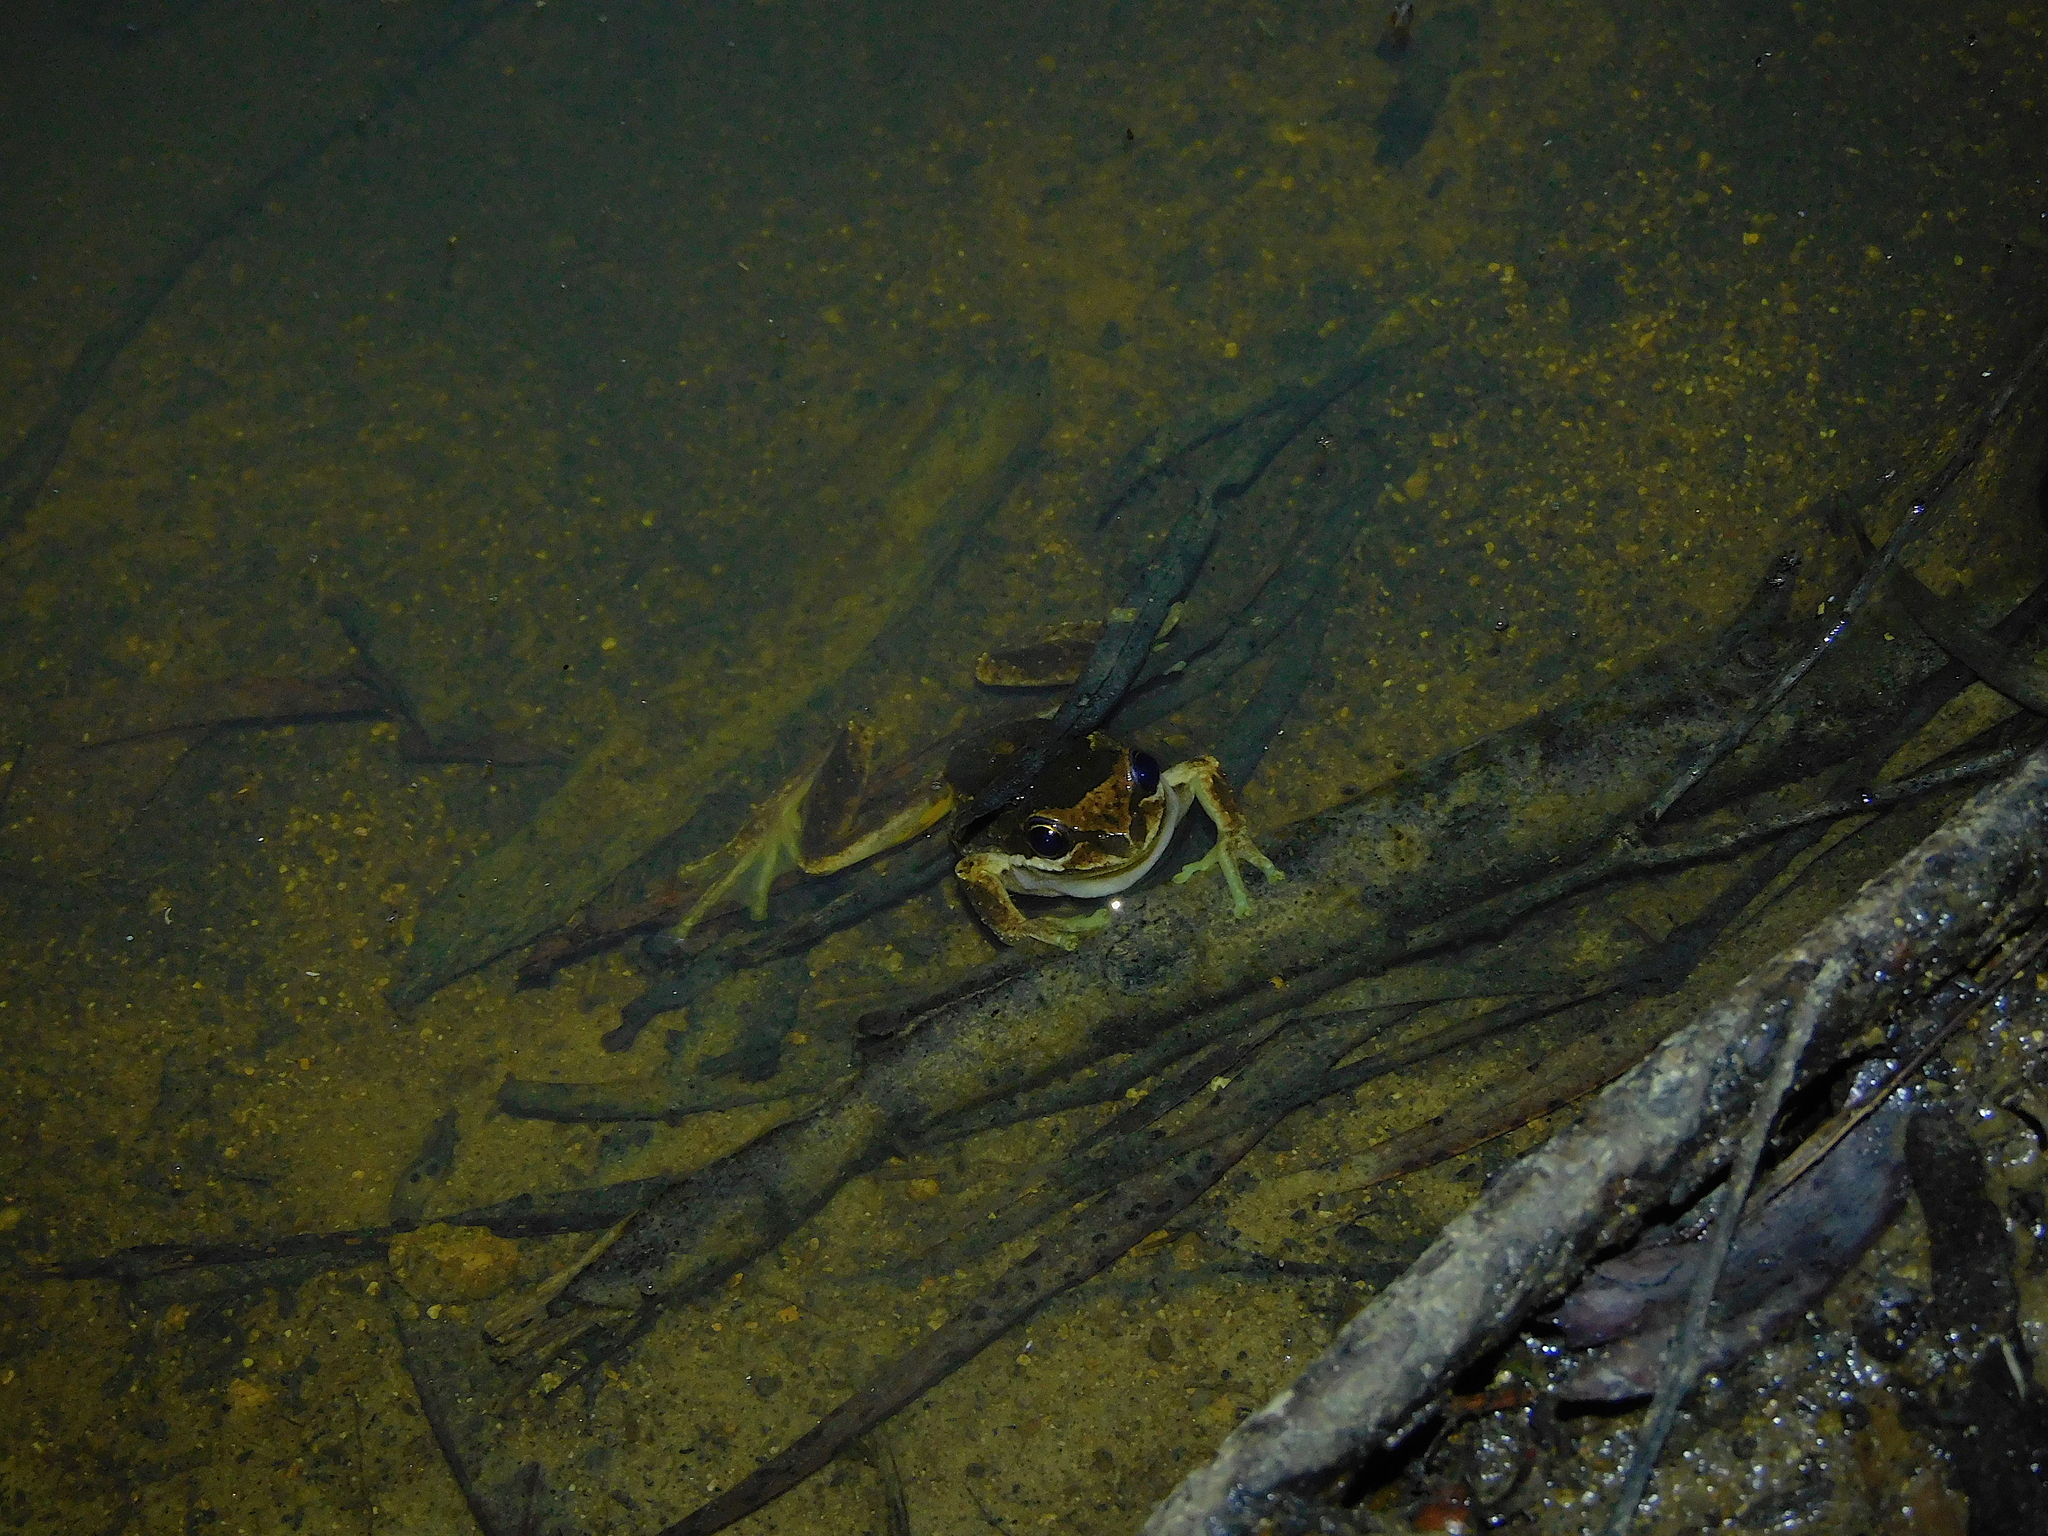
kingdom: Animalia
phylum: Chordata
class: Amphibia
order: Anura
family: Pelodryadidae
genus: Litoria
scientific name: Litoria ewingii
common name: Southern brown tree frog
